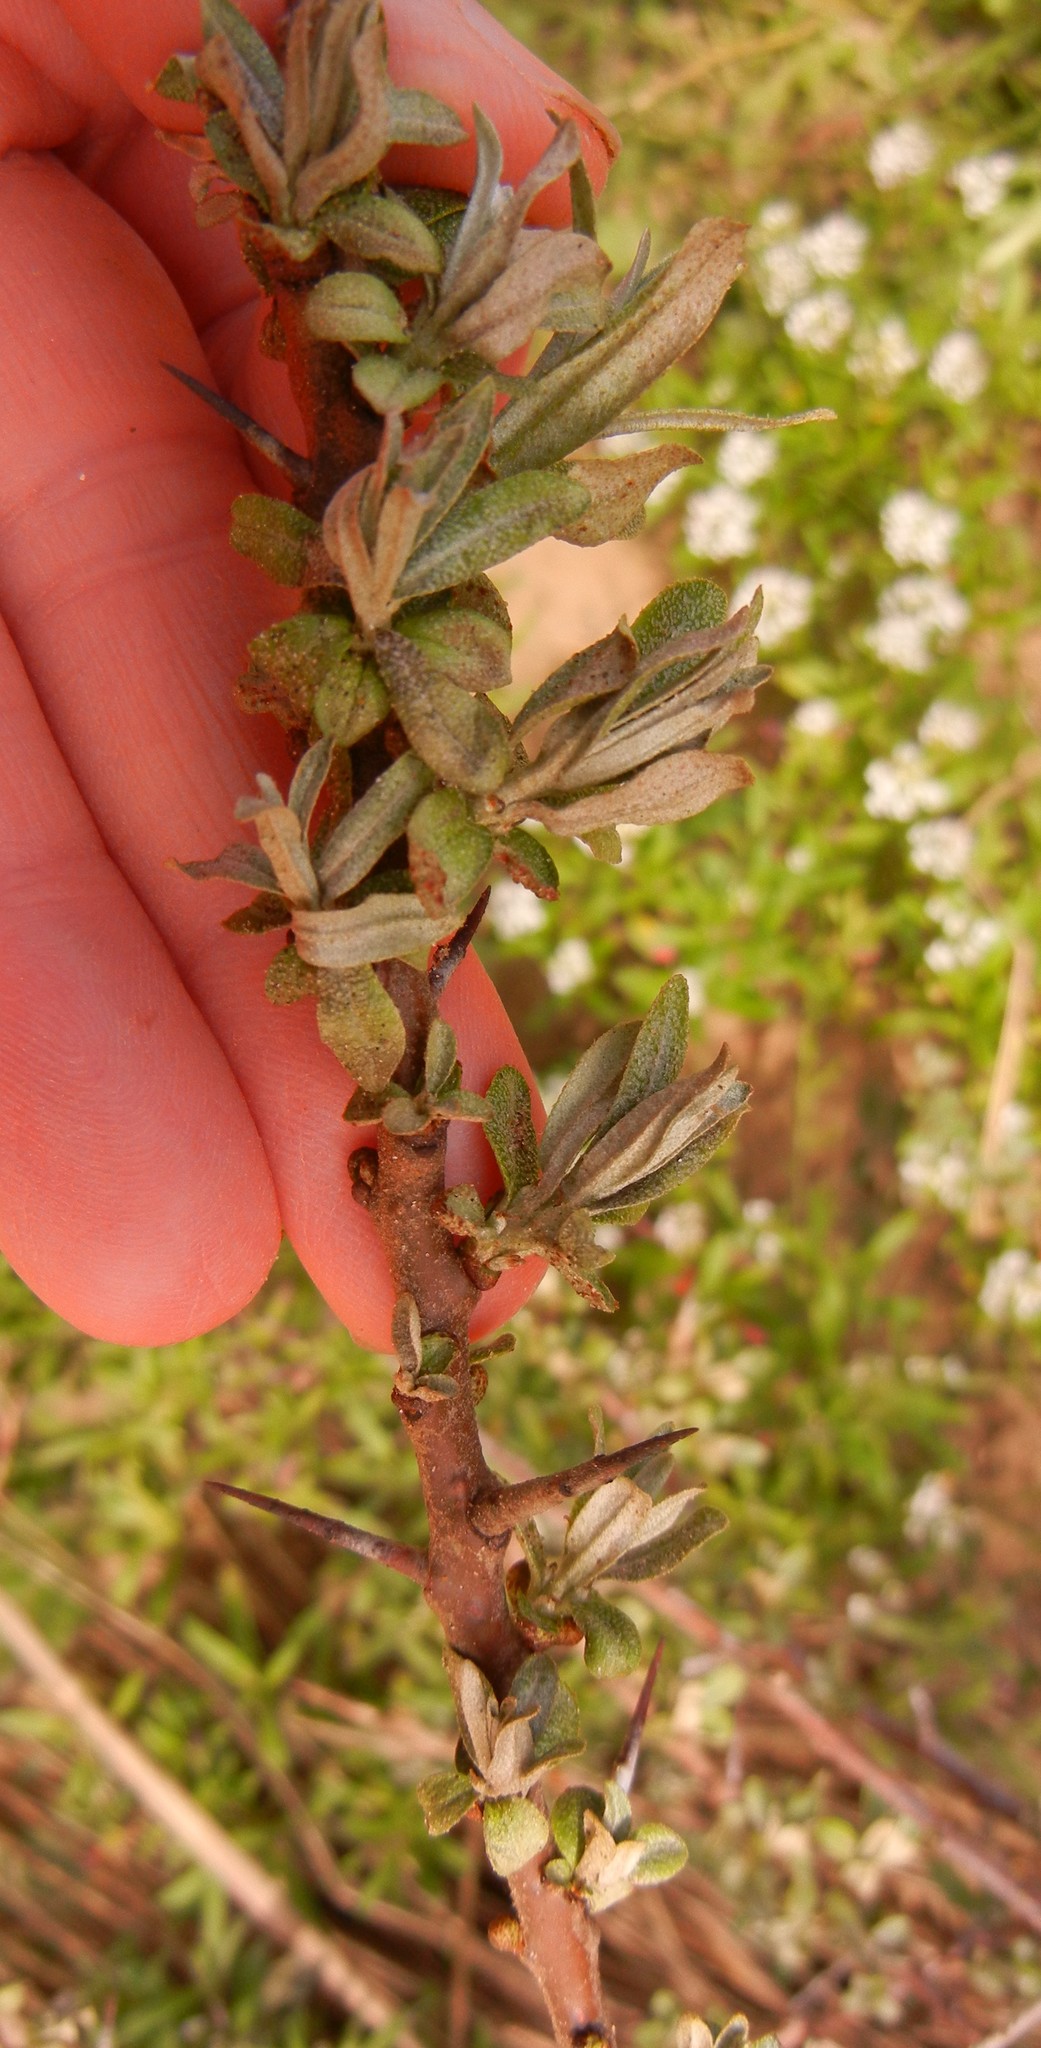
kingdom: Plantae
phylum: Tracheophyta
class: Magnoliopsida
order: Rosales
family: Elaeagnaceae
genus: Hippophae
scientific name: Hippophae rhamnoides
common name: Sea-buckthorn
